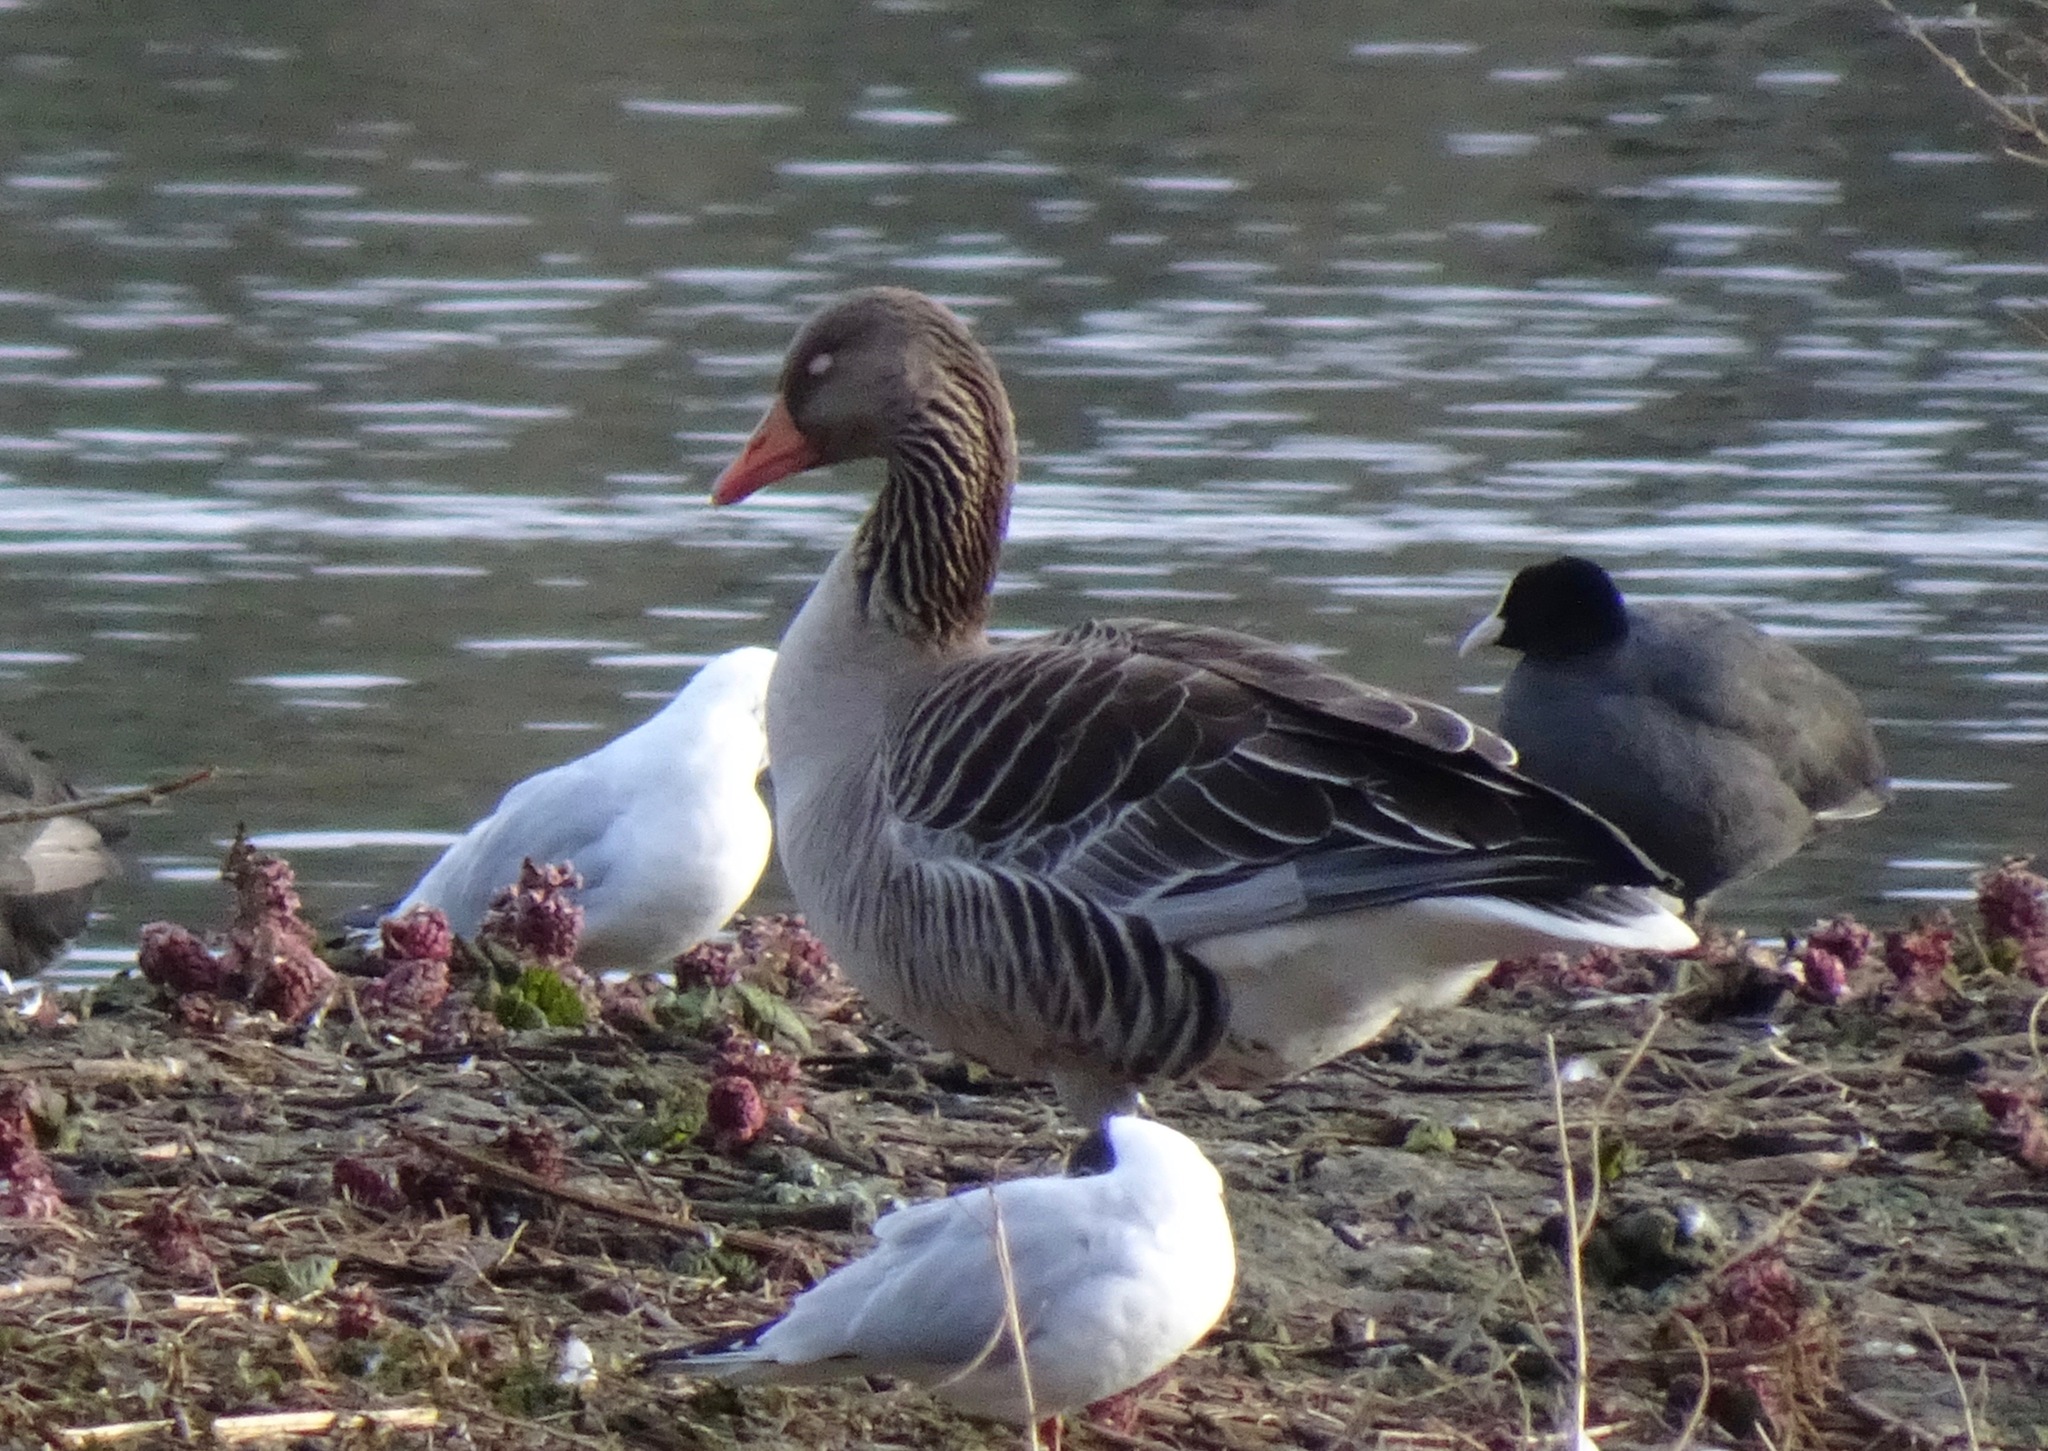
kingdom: Animalia
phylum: Chordata
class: Aves
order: Anseriformes
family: Anatidae
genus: Anser
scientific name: Anser anser
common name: Greylag goose
